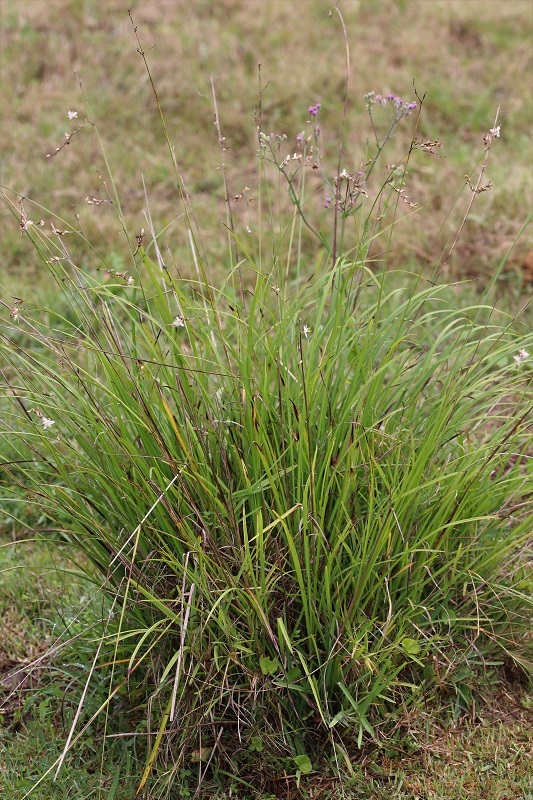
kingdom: Plantae
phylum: Tracheophyta
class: Liliopsida
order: Asparagales
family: Asparagaceae
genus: Chlorophytum
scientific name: Chlorophytum saundersiae
